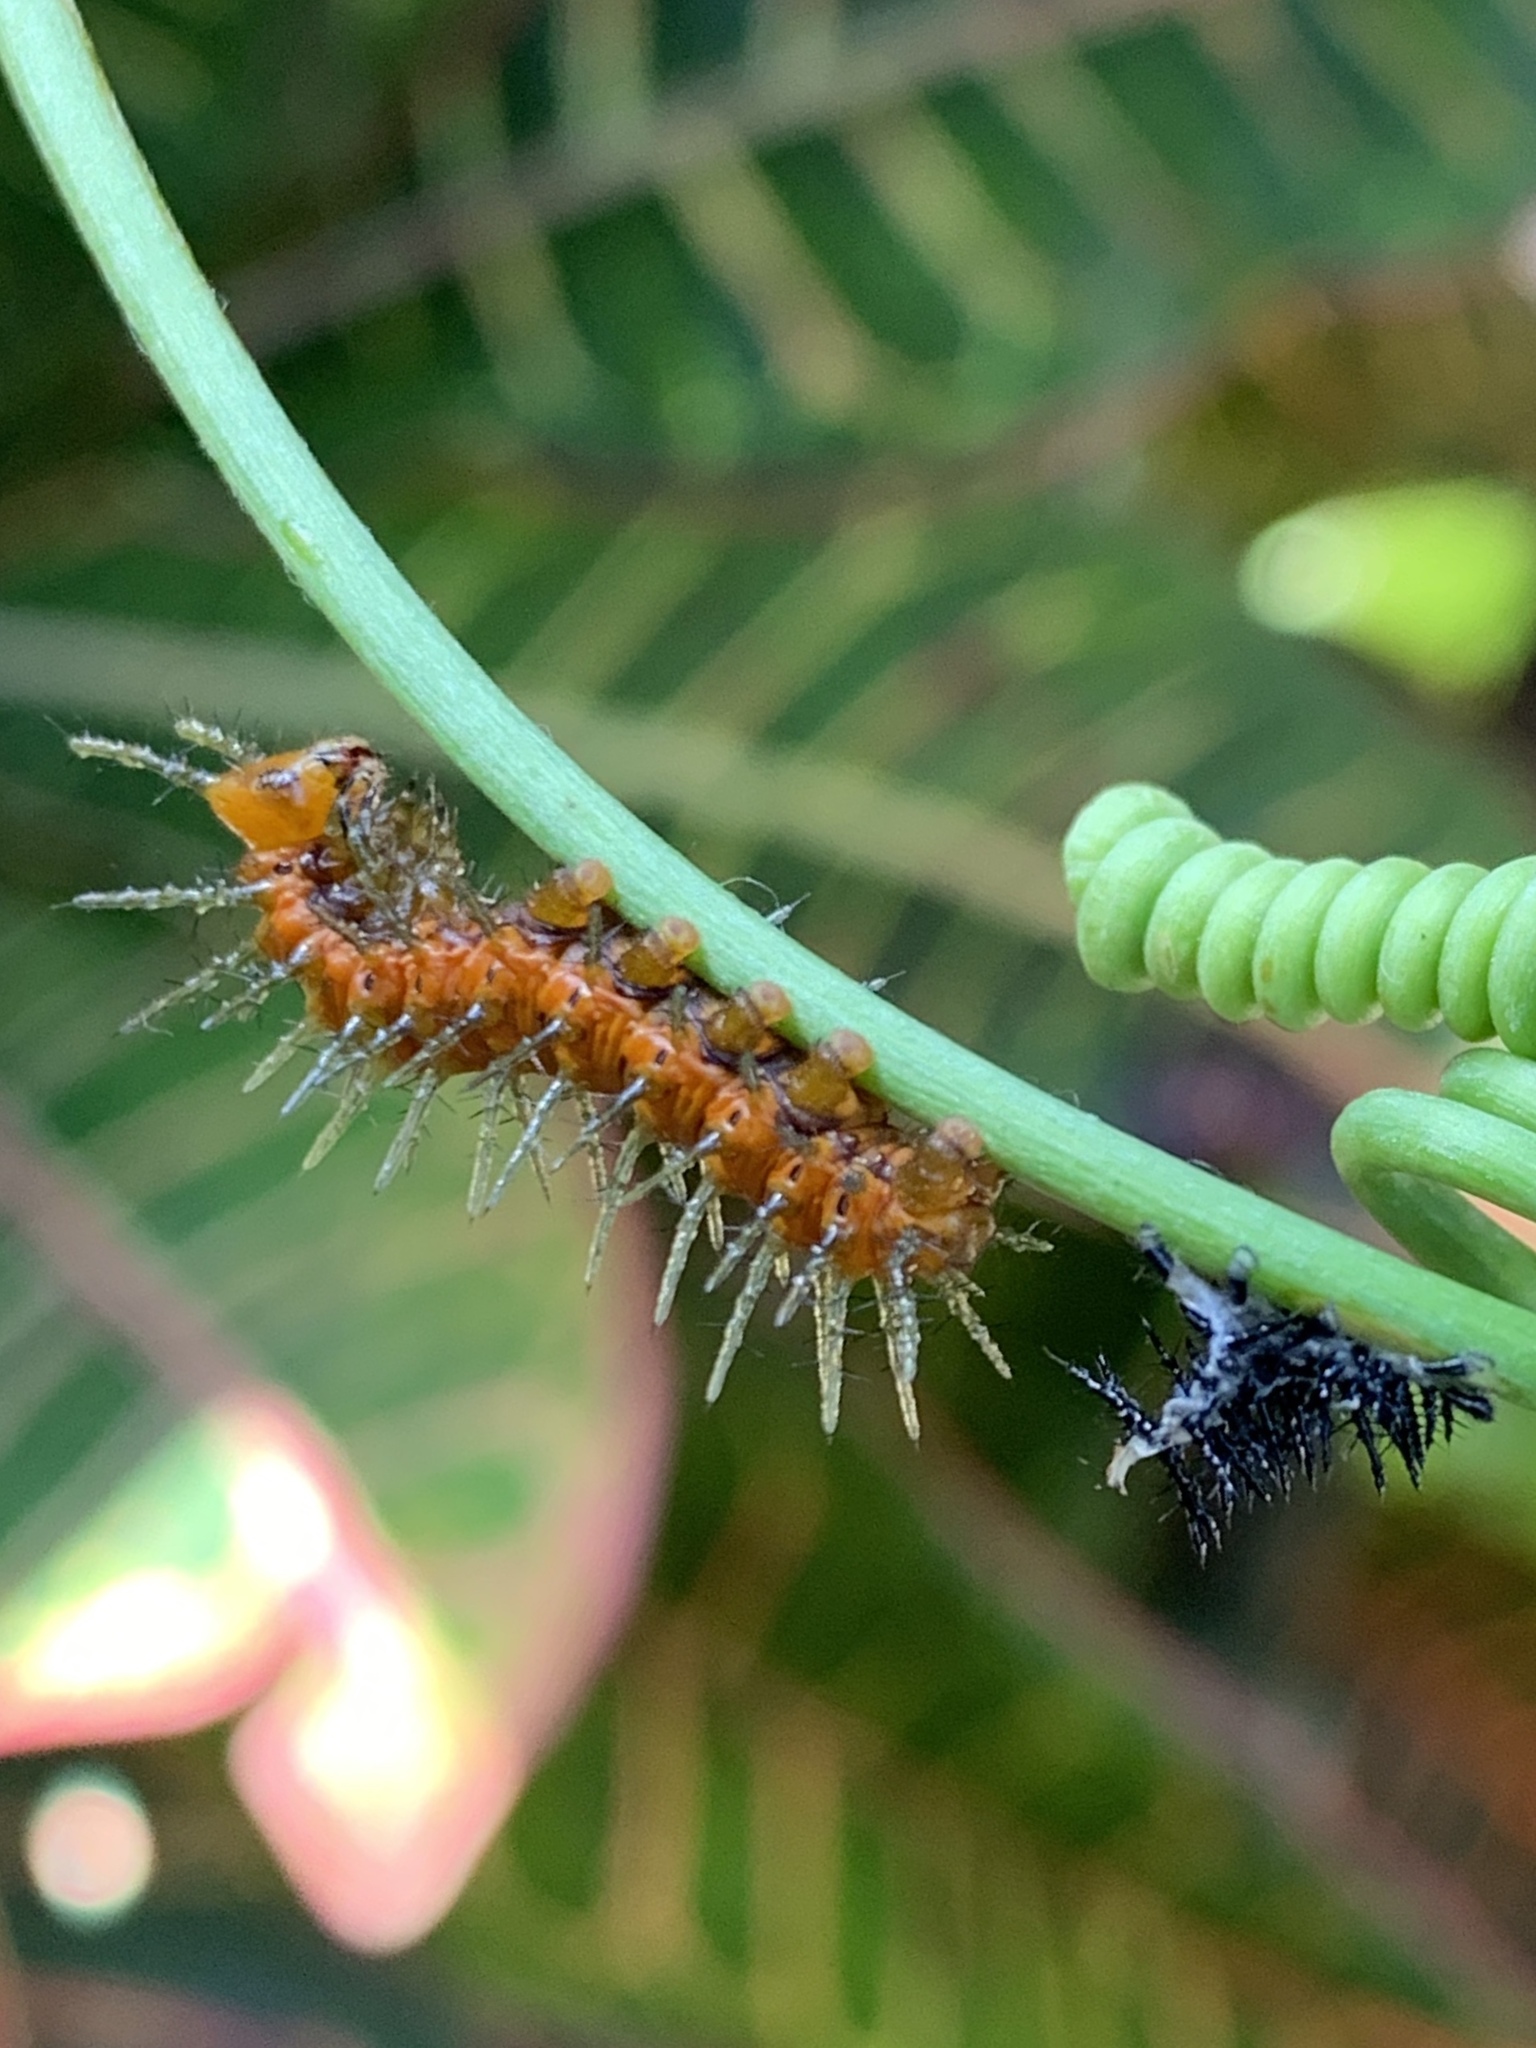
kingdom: Animalia
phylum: Arthropoda
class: Insecta
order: Lepidoptera
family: Nymphalidae
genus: Dione
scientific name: Dione vanillae
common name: Gulf fritillary
